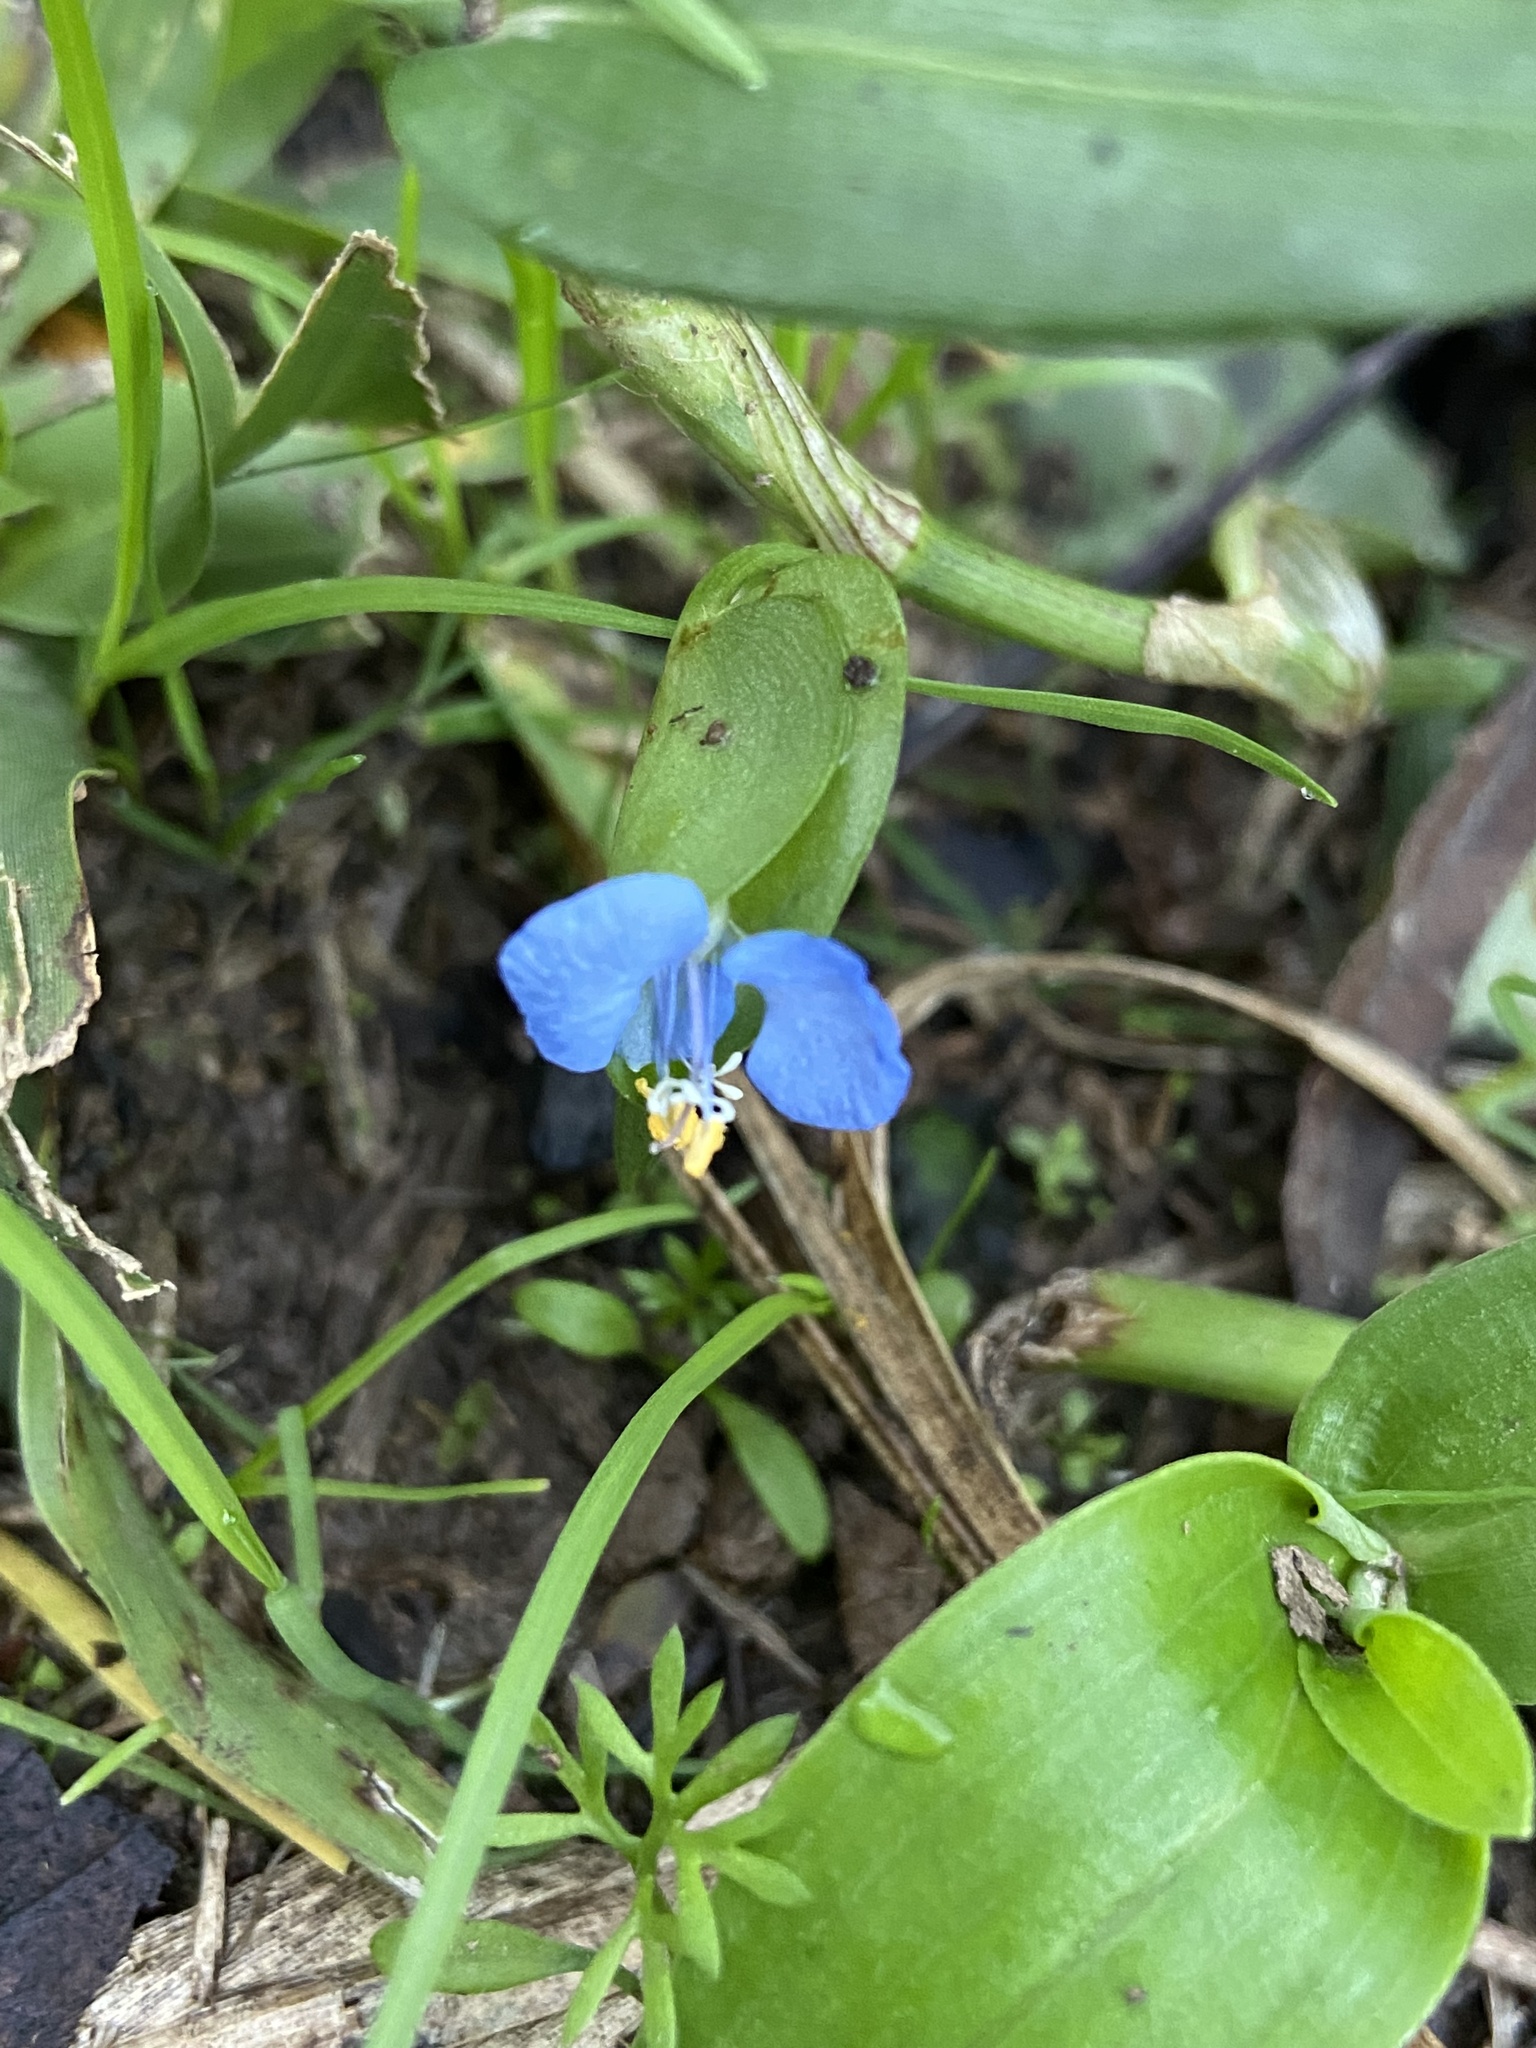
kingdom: Plantae
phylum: Tracheophyta
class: Liliopsida
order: Commelinales
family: Commelinaceae
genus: Commelina
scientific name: Commelina erecta
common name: Blousel blommetjie
